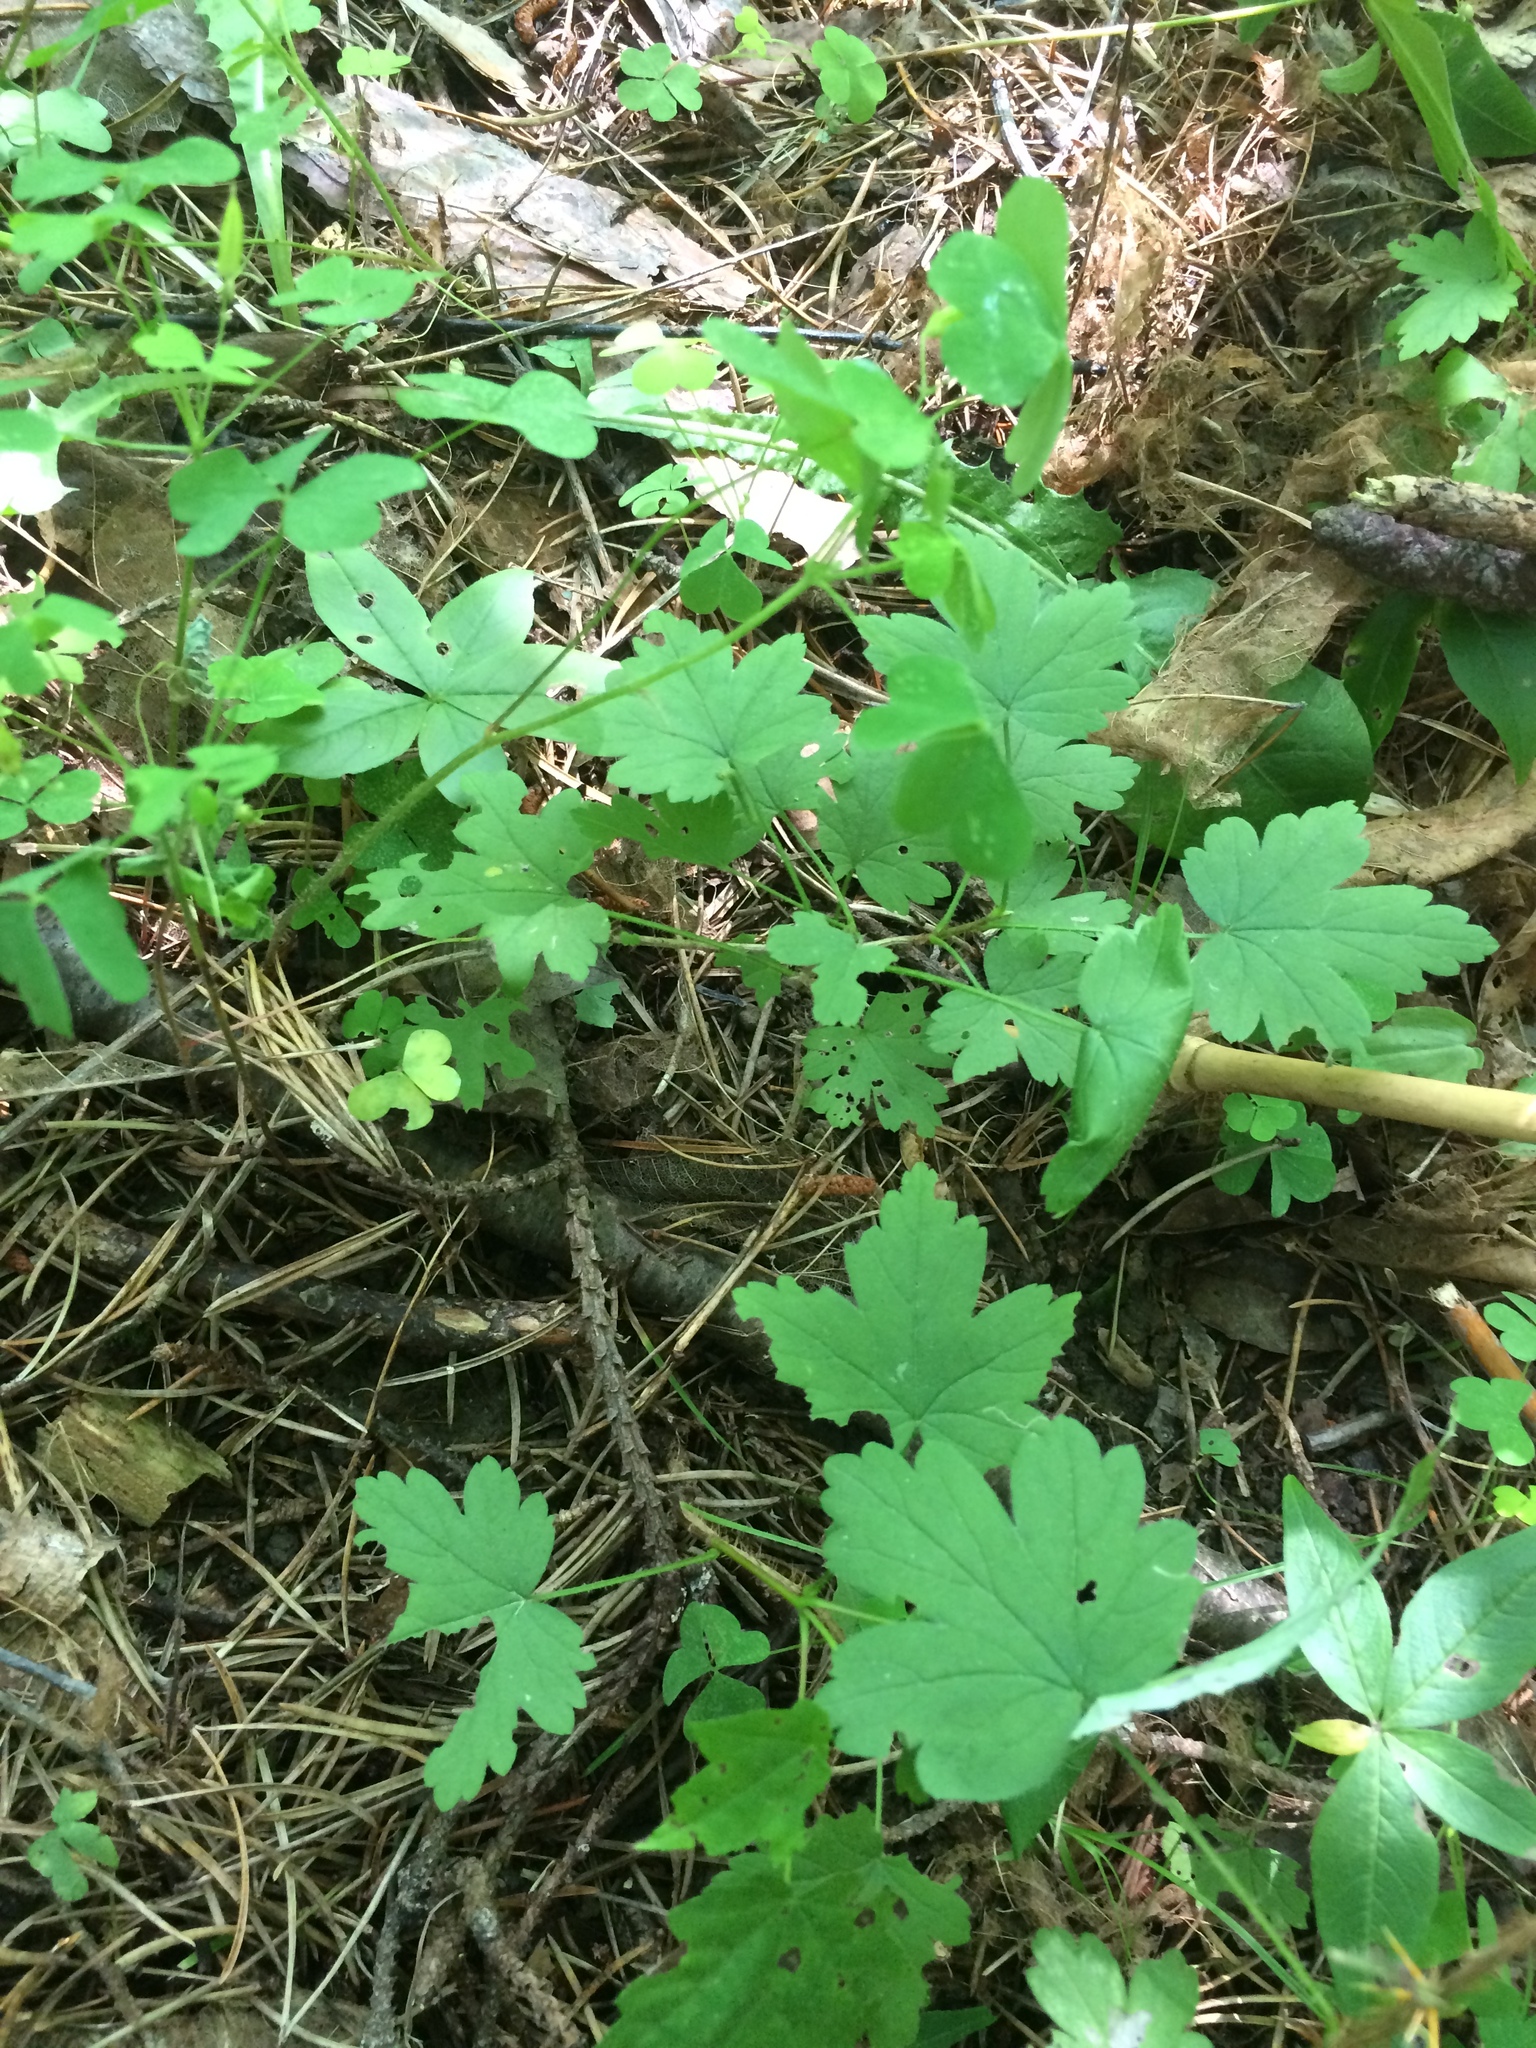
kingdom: Plantae
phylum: Tracheophyta
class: Magnoliopsida
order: Saxifragales
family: Grossulariaceae
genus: Ribes
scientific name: Ribes cynosbati
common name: American gooseberry
